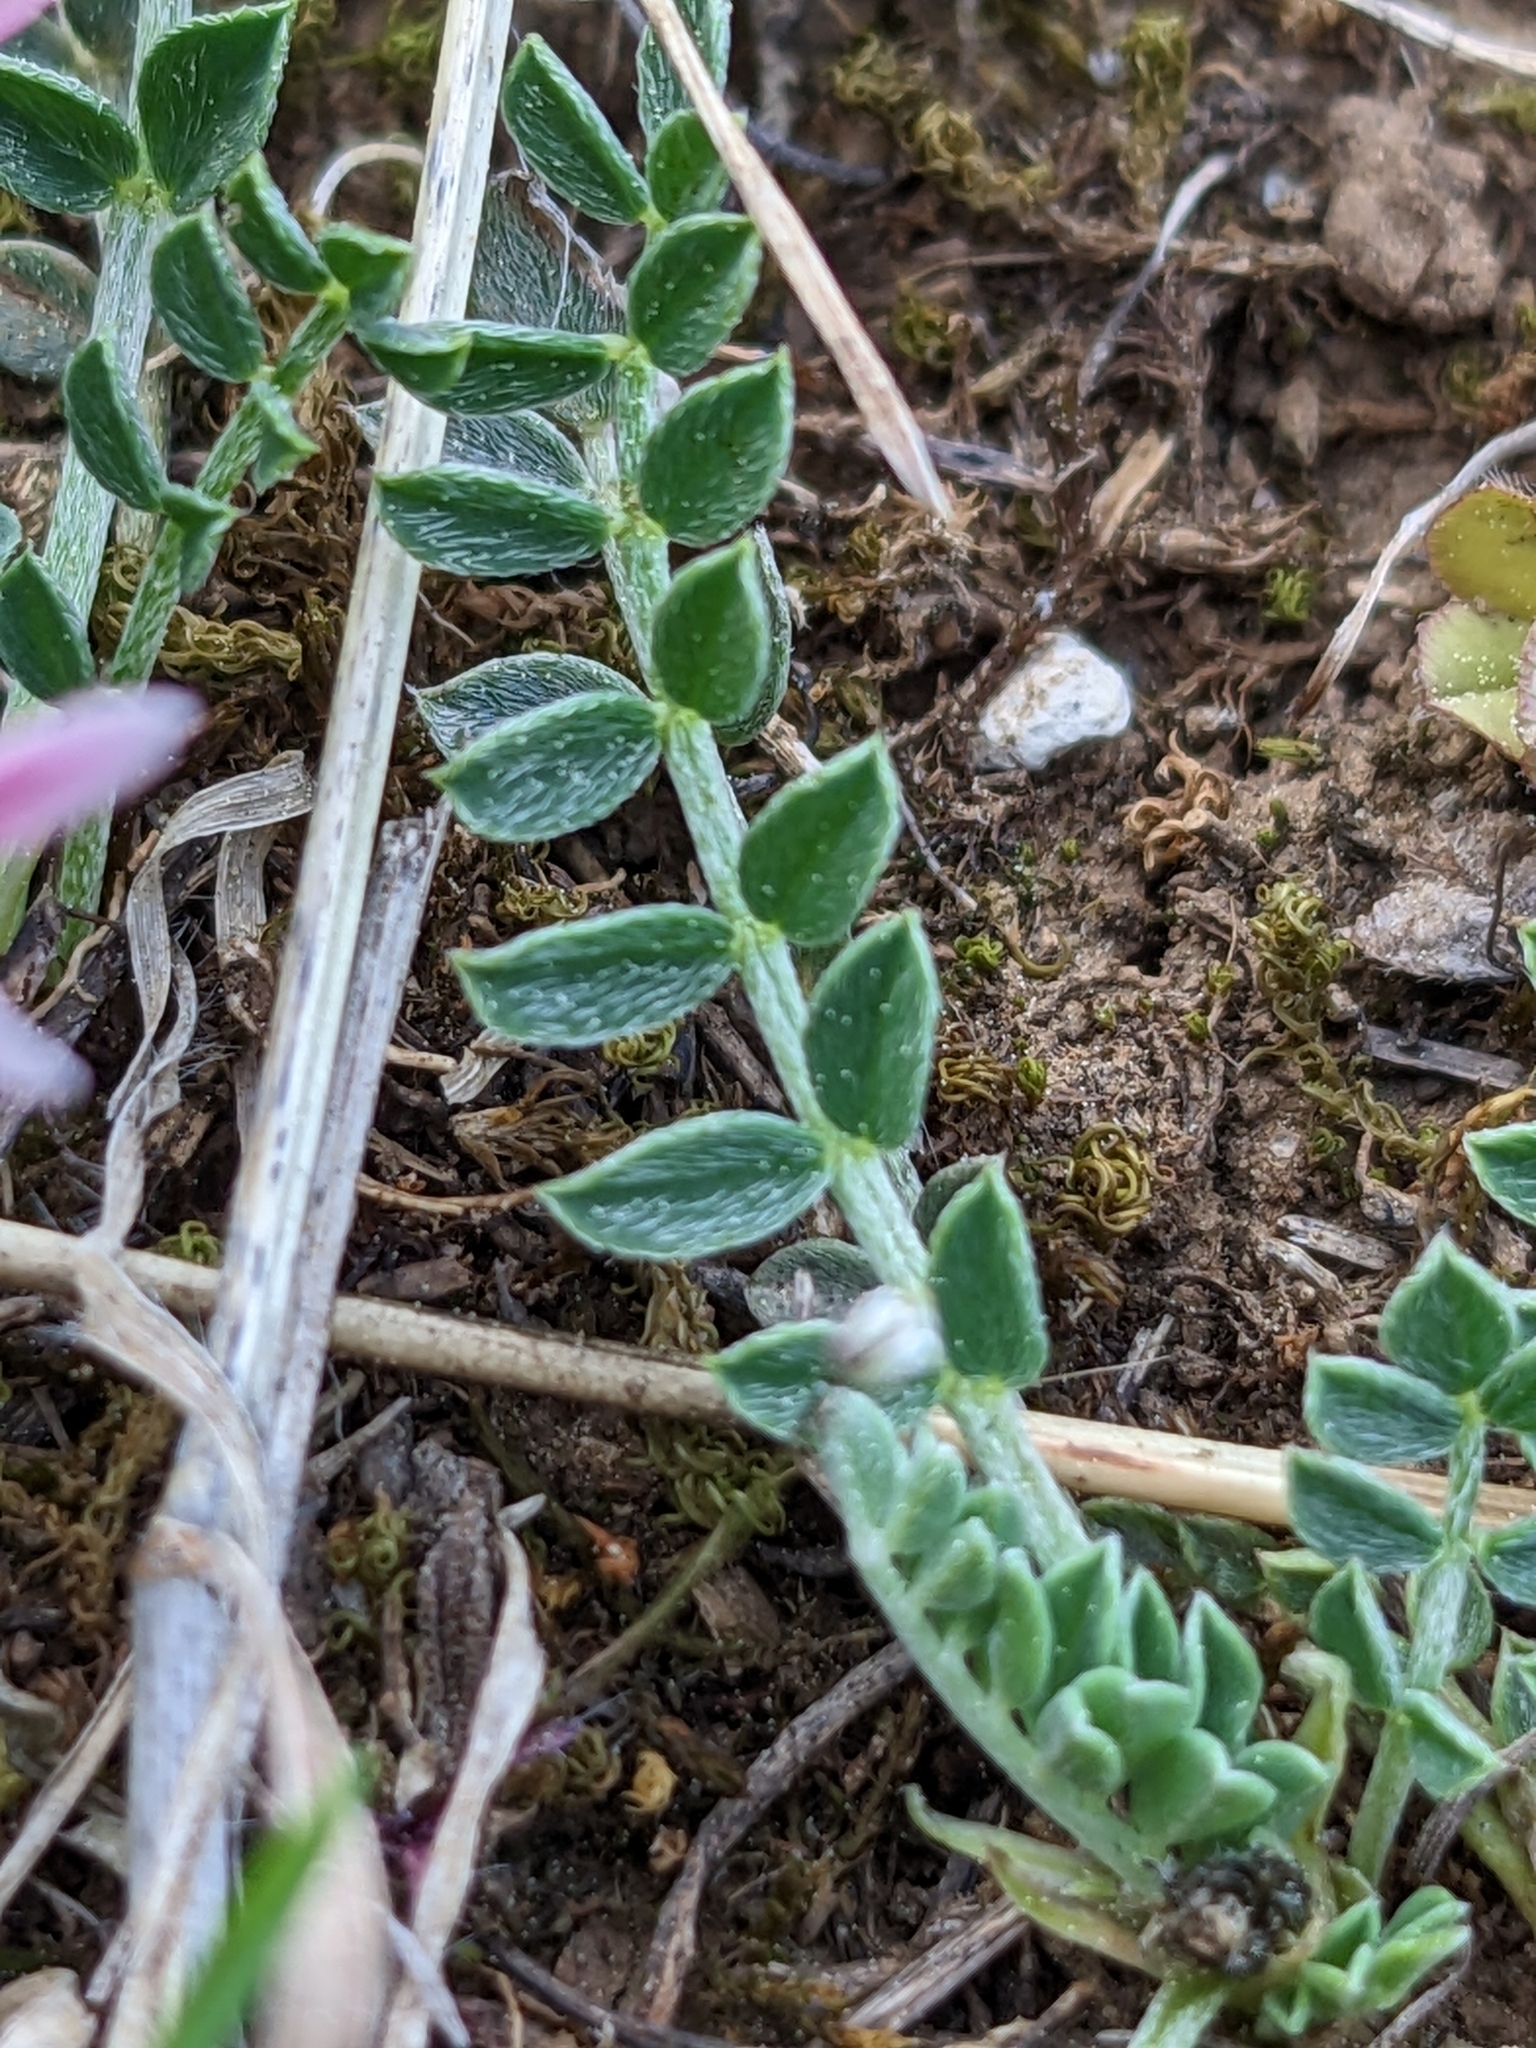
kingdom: Plantae
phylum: Tracheophyta
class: Magnoliopsida
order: Fabales
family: Fabaceae
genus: Astragalus
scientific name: Astragalus incanus
